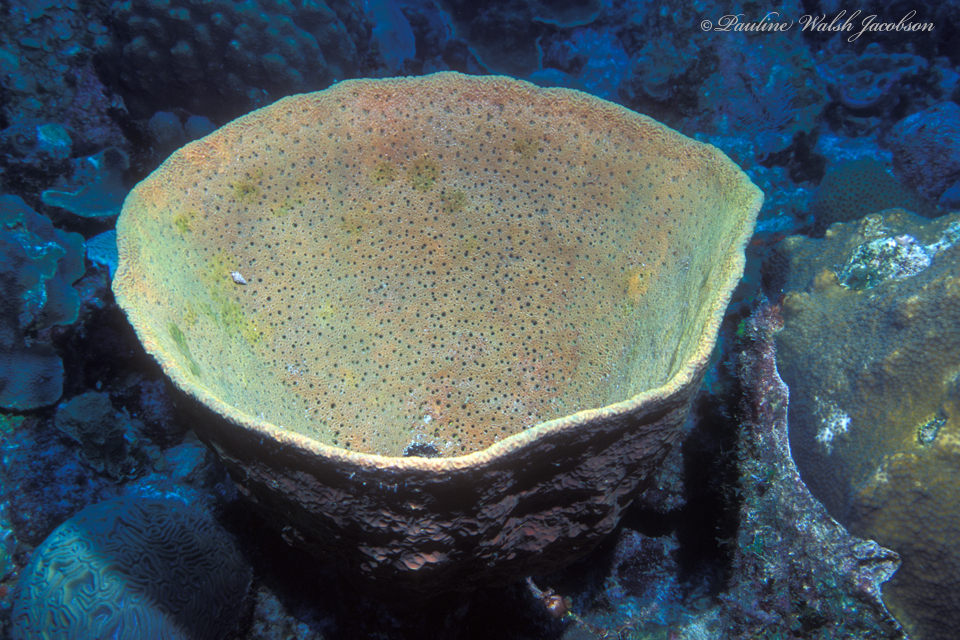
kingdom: Animalia
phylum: Porifera
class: Demospongiae
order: Verongiida
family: Aplysinidae
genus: Verongula
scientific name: Verongula gigantea
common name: Netted barrel sponge
